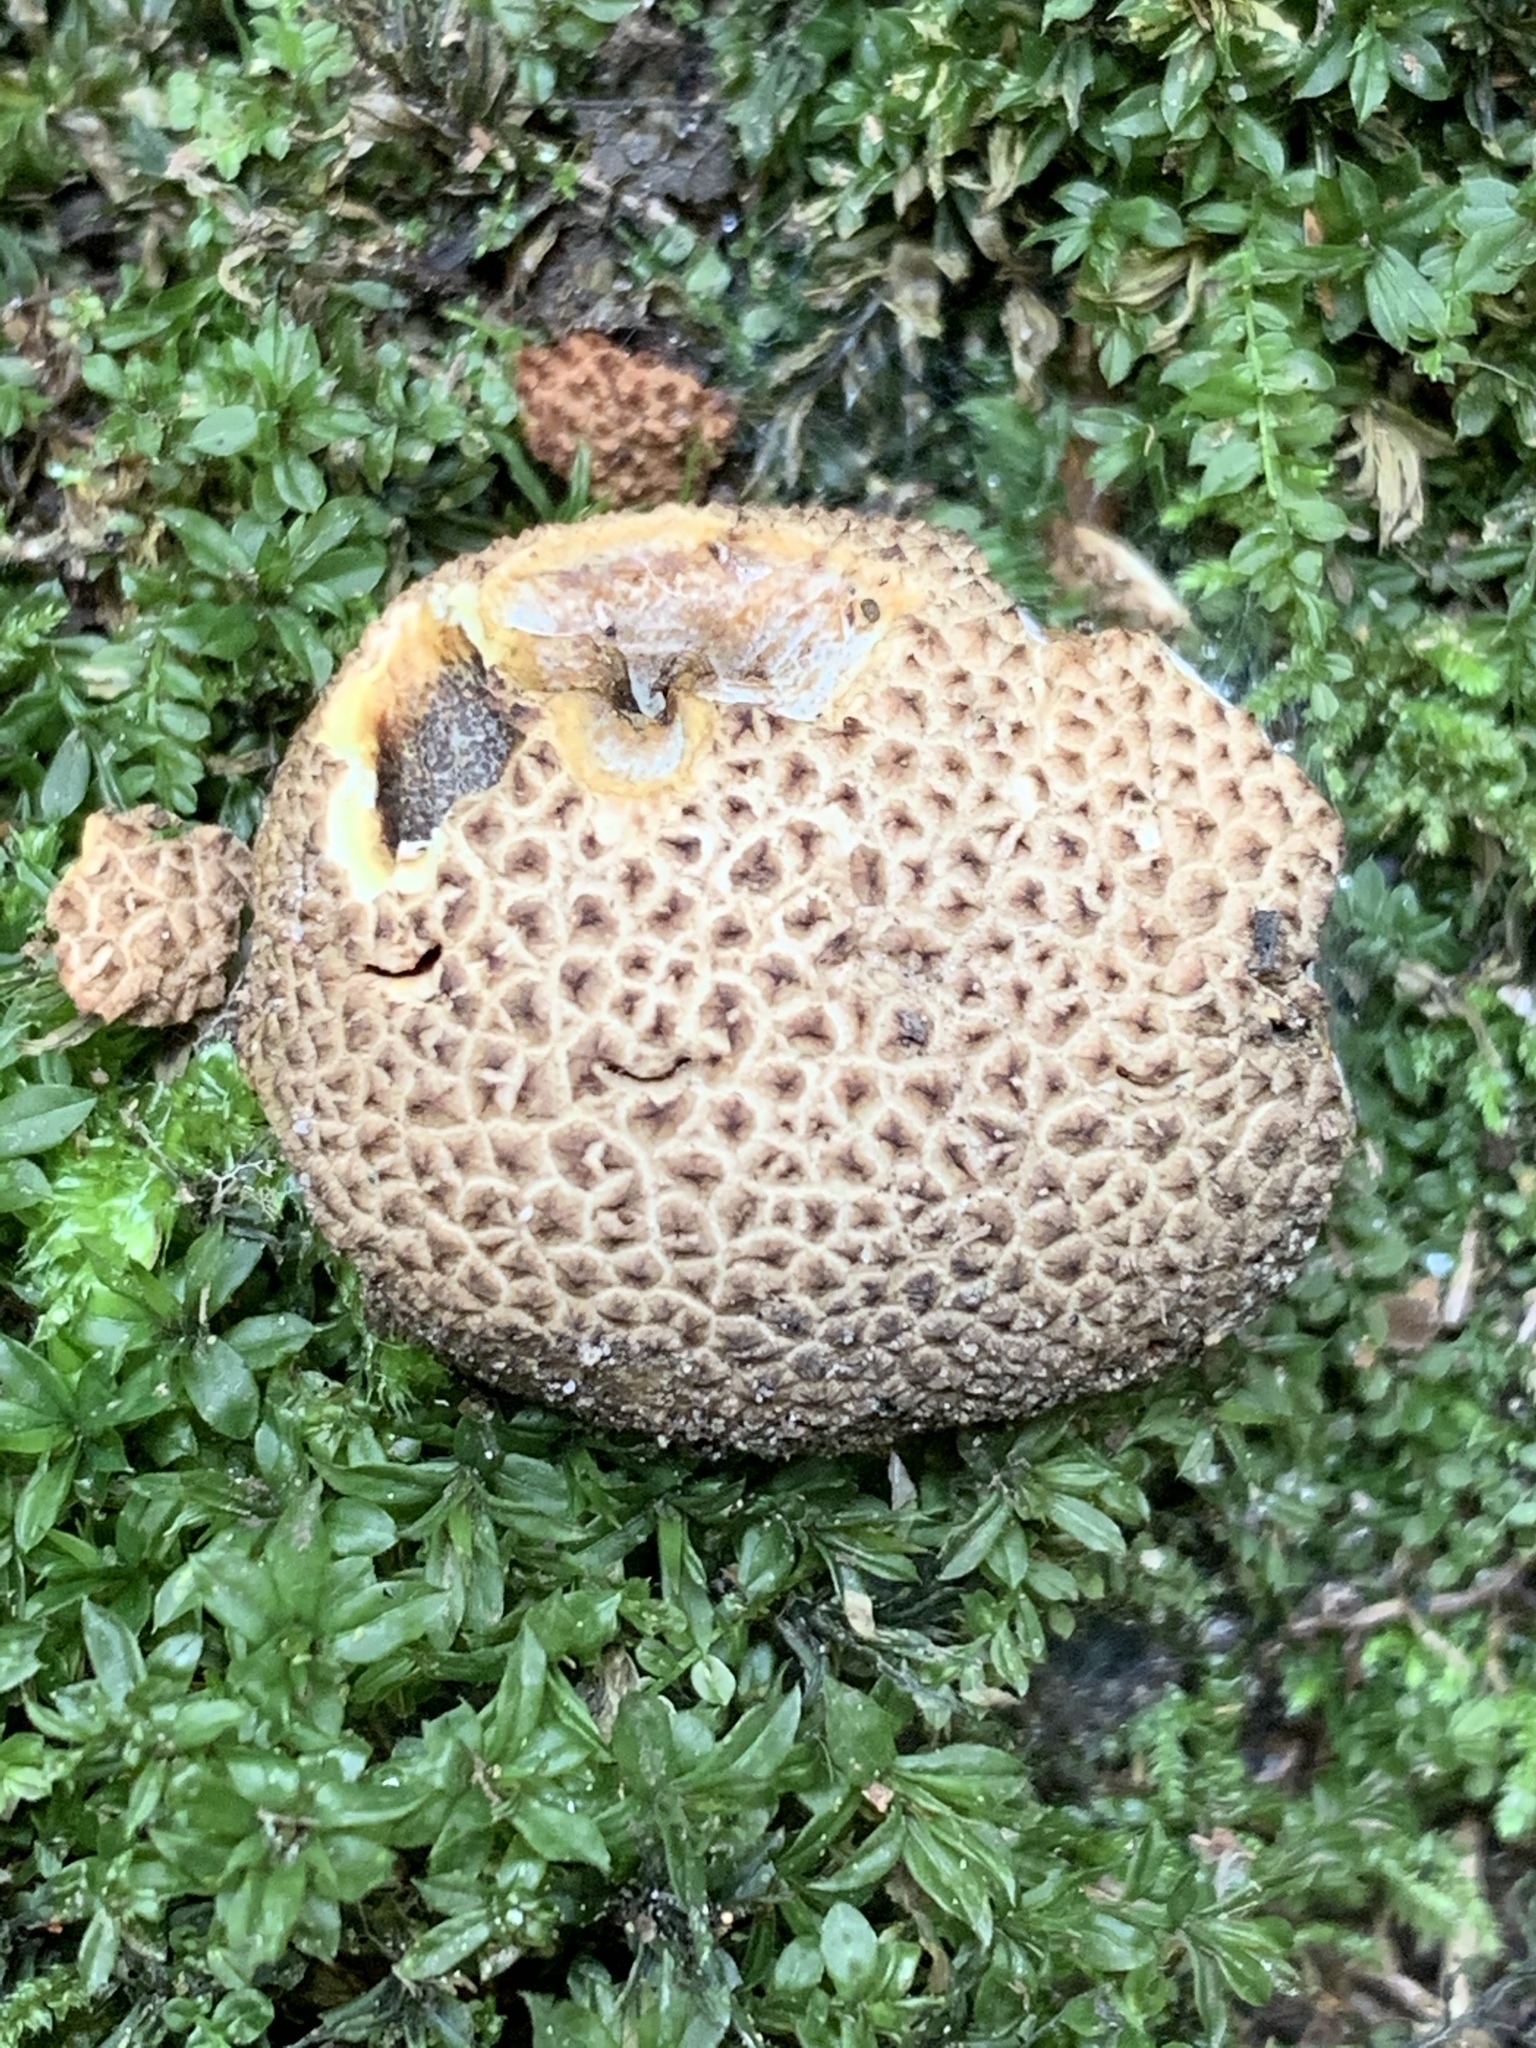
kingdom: Fungi
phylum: Basidiomycota
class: Agaricomycetes
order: Boletales
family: Sclerodermataceae
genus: Scleroderma
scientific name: Scleroderma citrinum
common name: Common earthball
